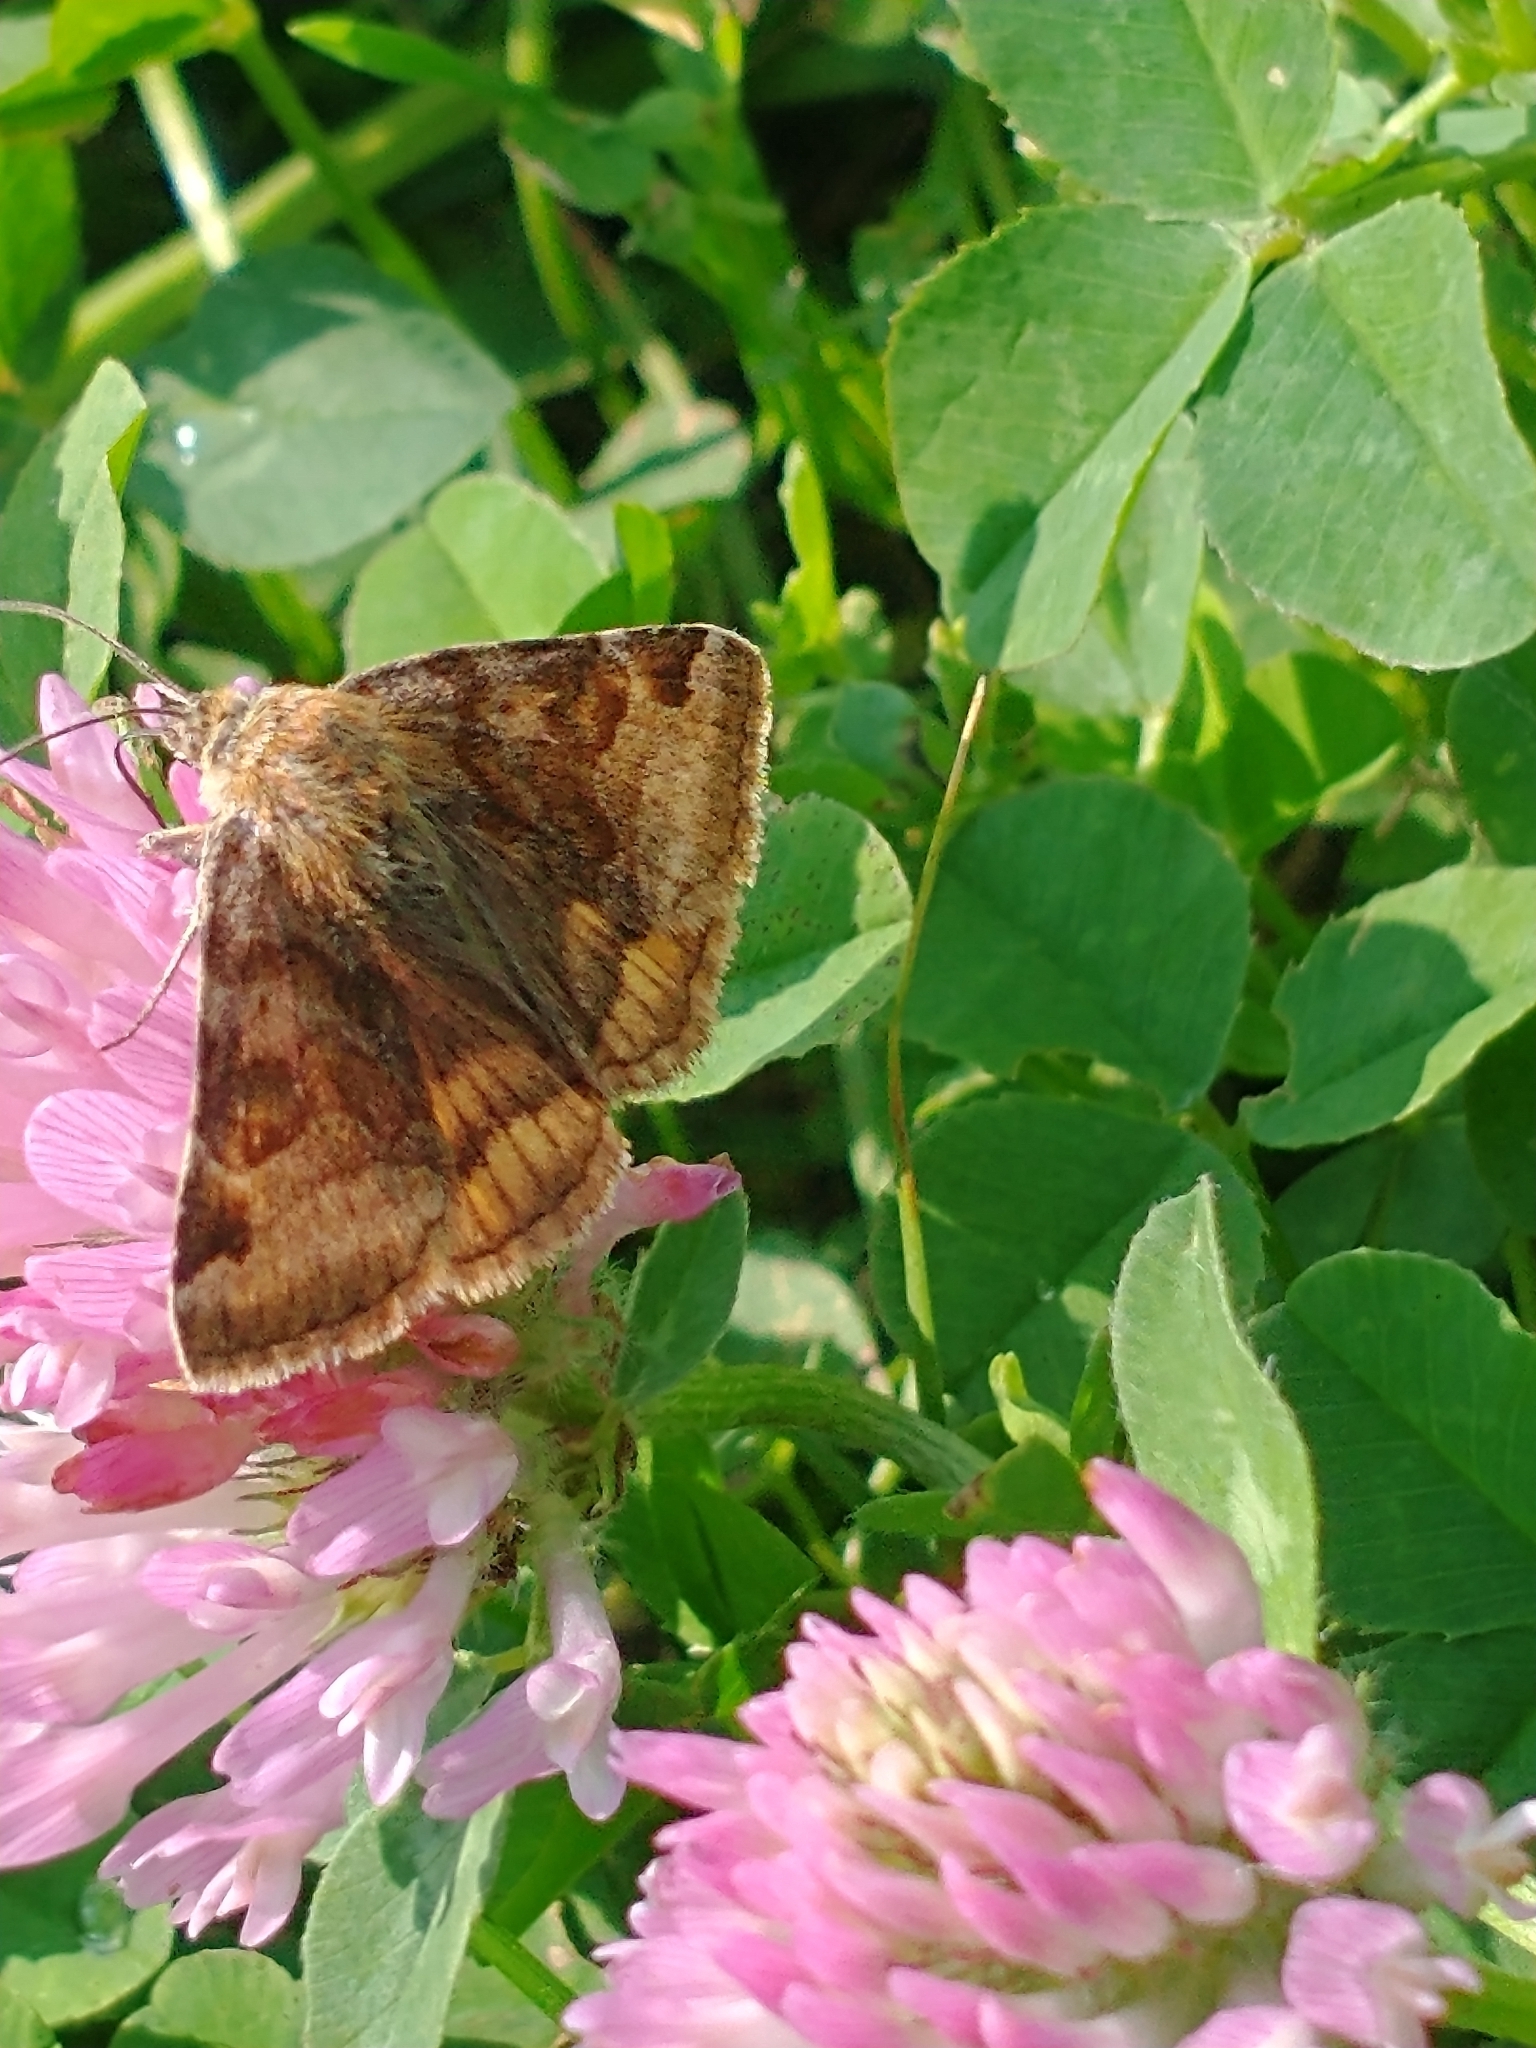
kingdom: Animalia
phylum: Arthropoda
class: Insecta
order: Lepidoptera
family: Erebidae
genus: Euclidia
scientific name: Euclidia glyphica
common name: Burnet companion
